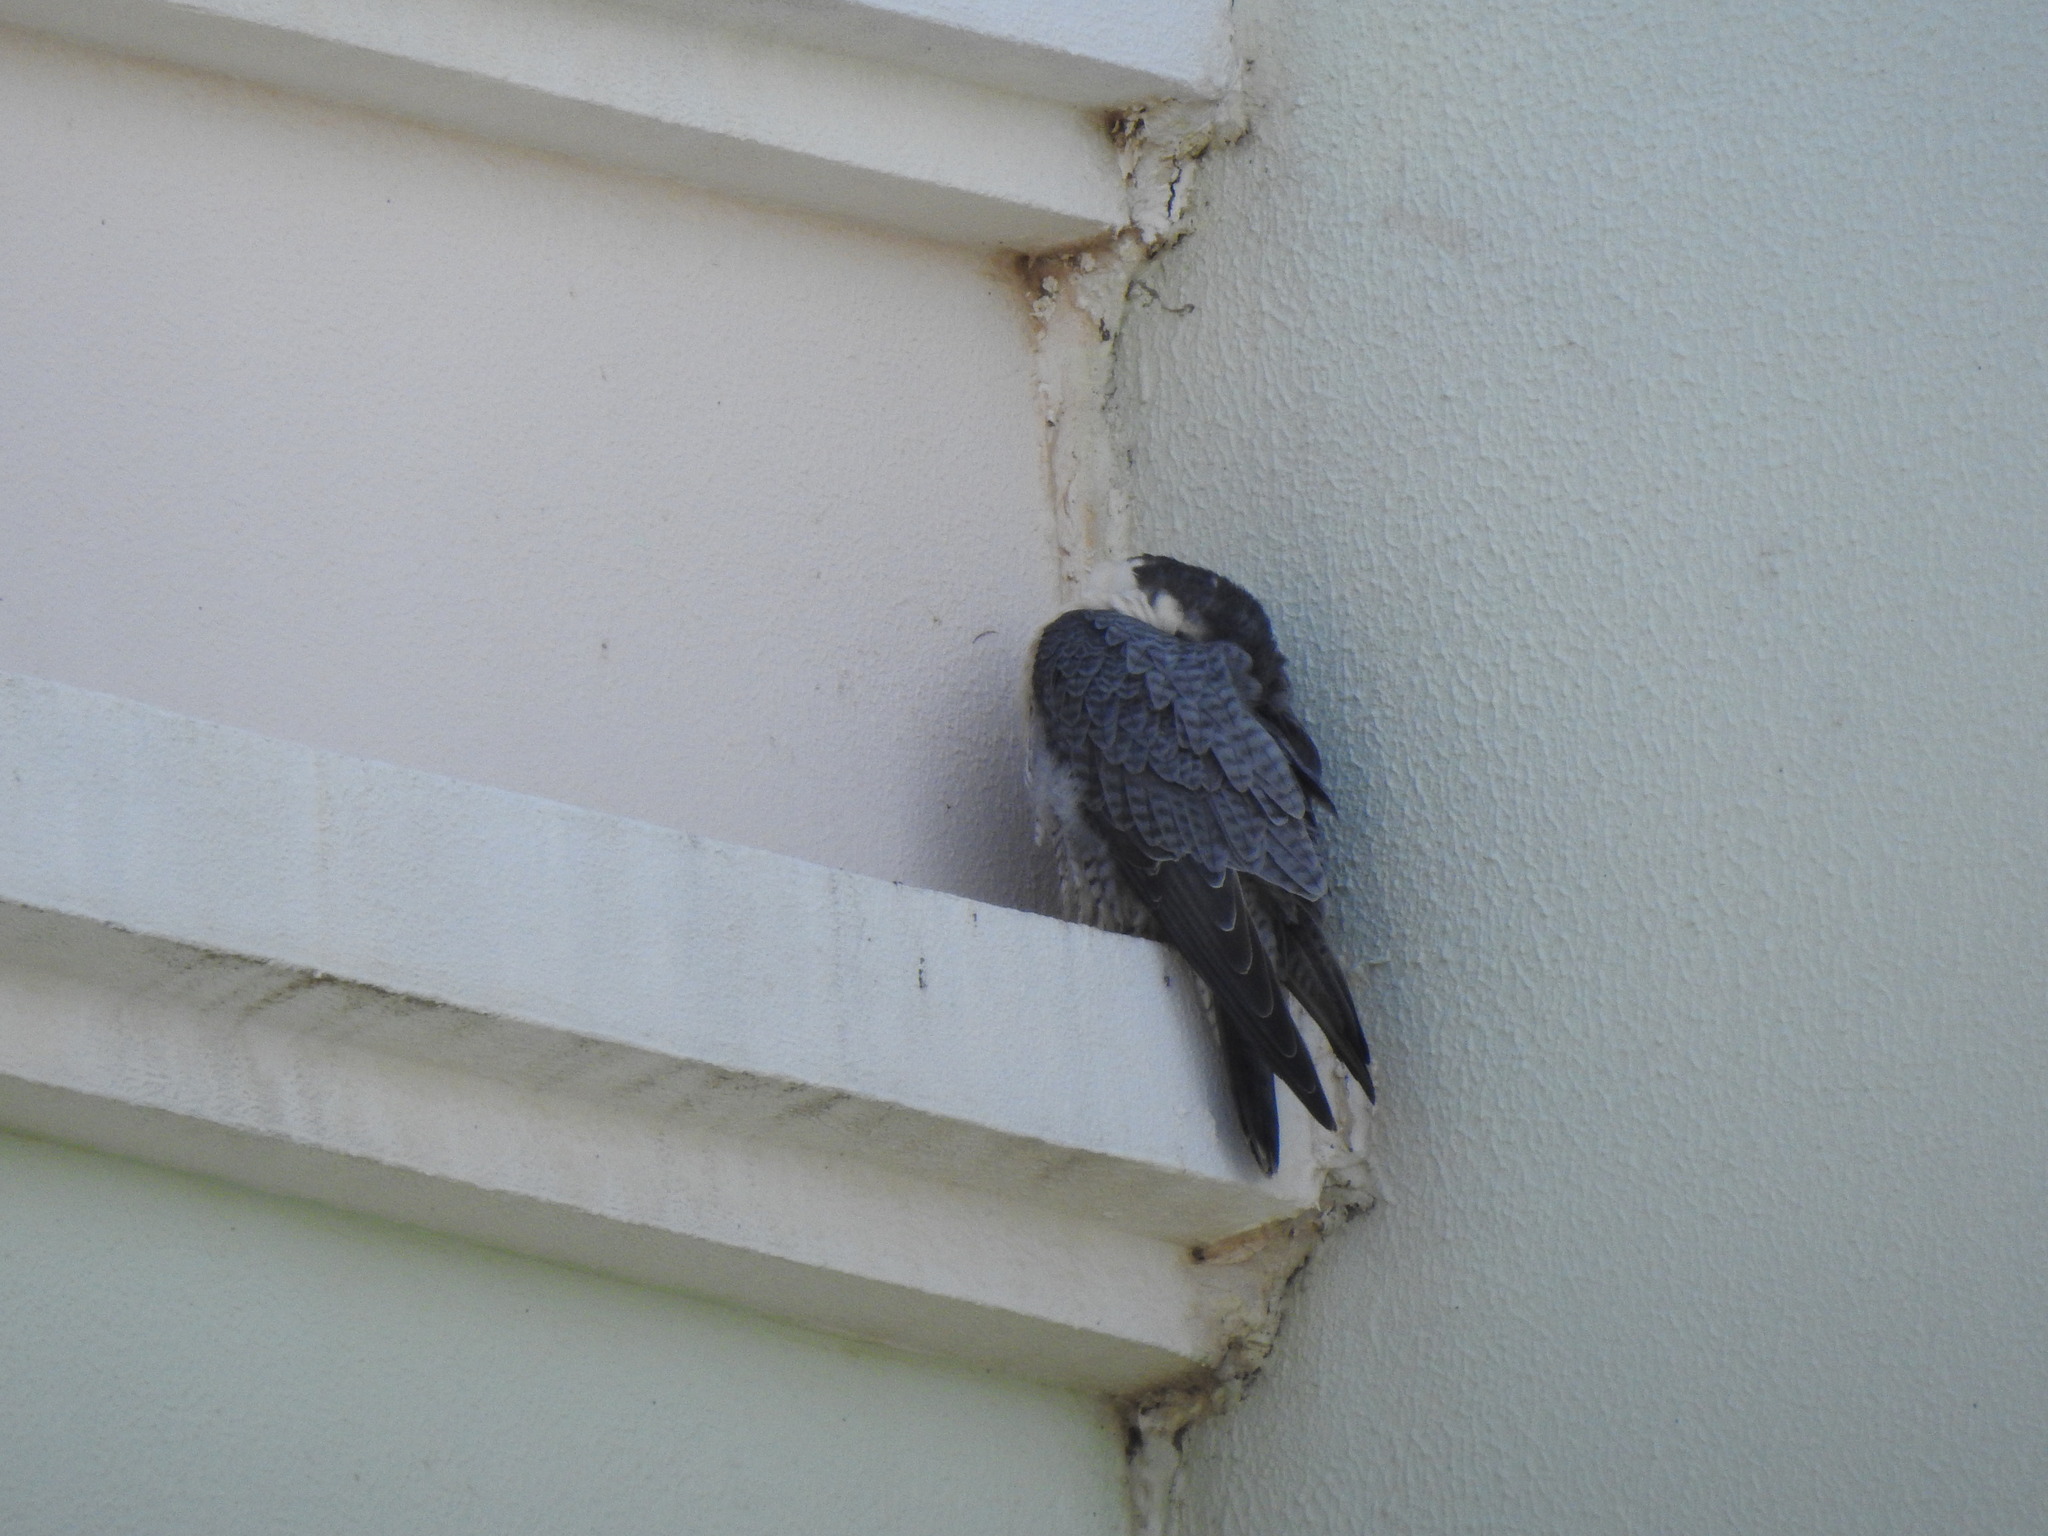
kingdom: Animalia
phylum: Chordata
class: Aves
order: Falconiformes
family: Falconidae
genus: Falco
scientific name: Falco peregrinus
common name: Peregrine falcon
